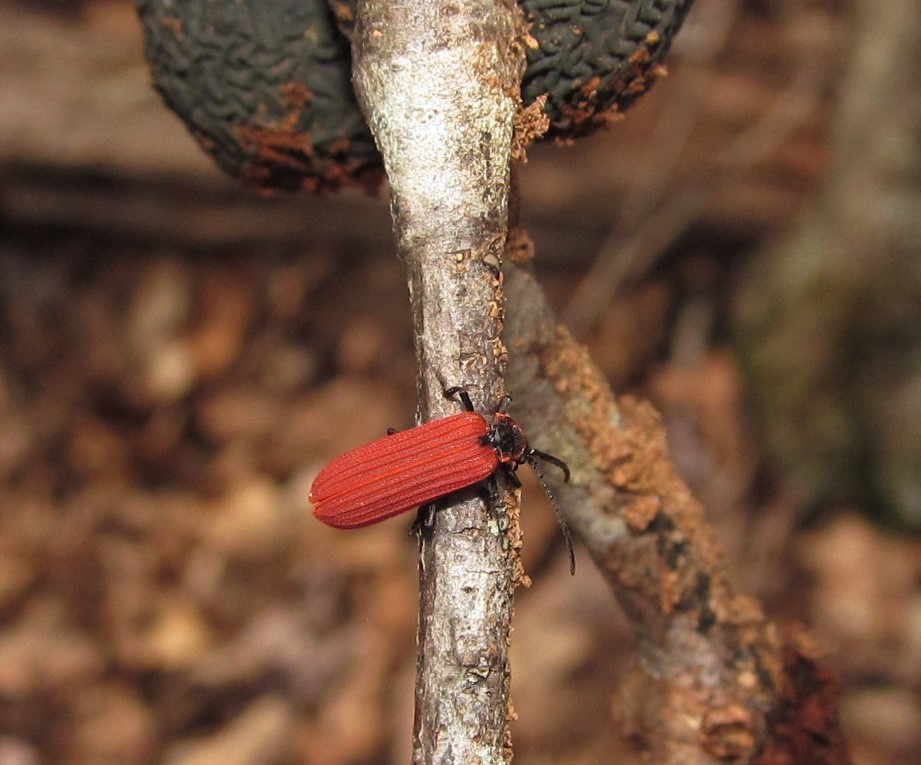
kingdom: Animalia
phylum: Arthropoda
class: Insecta
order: Coleoptera
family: Lycidae
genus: Dictyoptera
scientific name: Dictyoptera aurora
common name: Golden net-winged beetle
